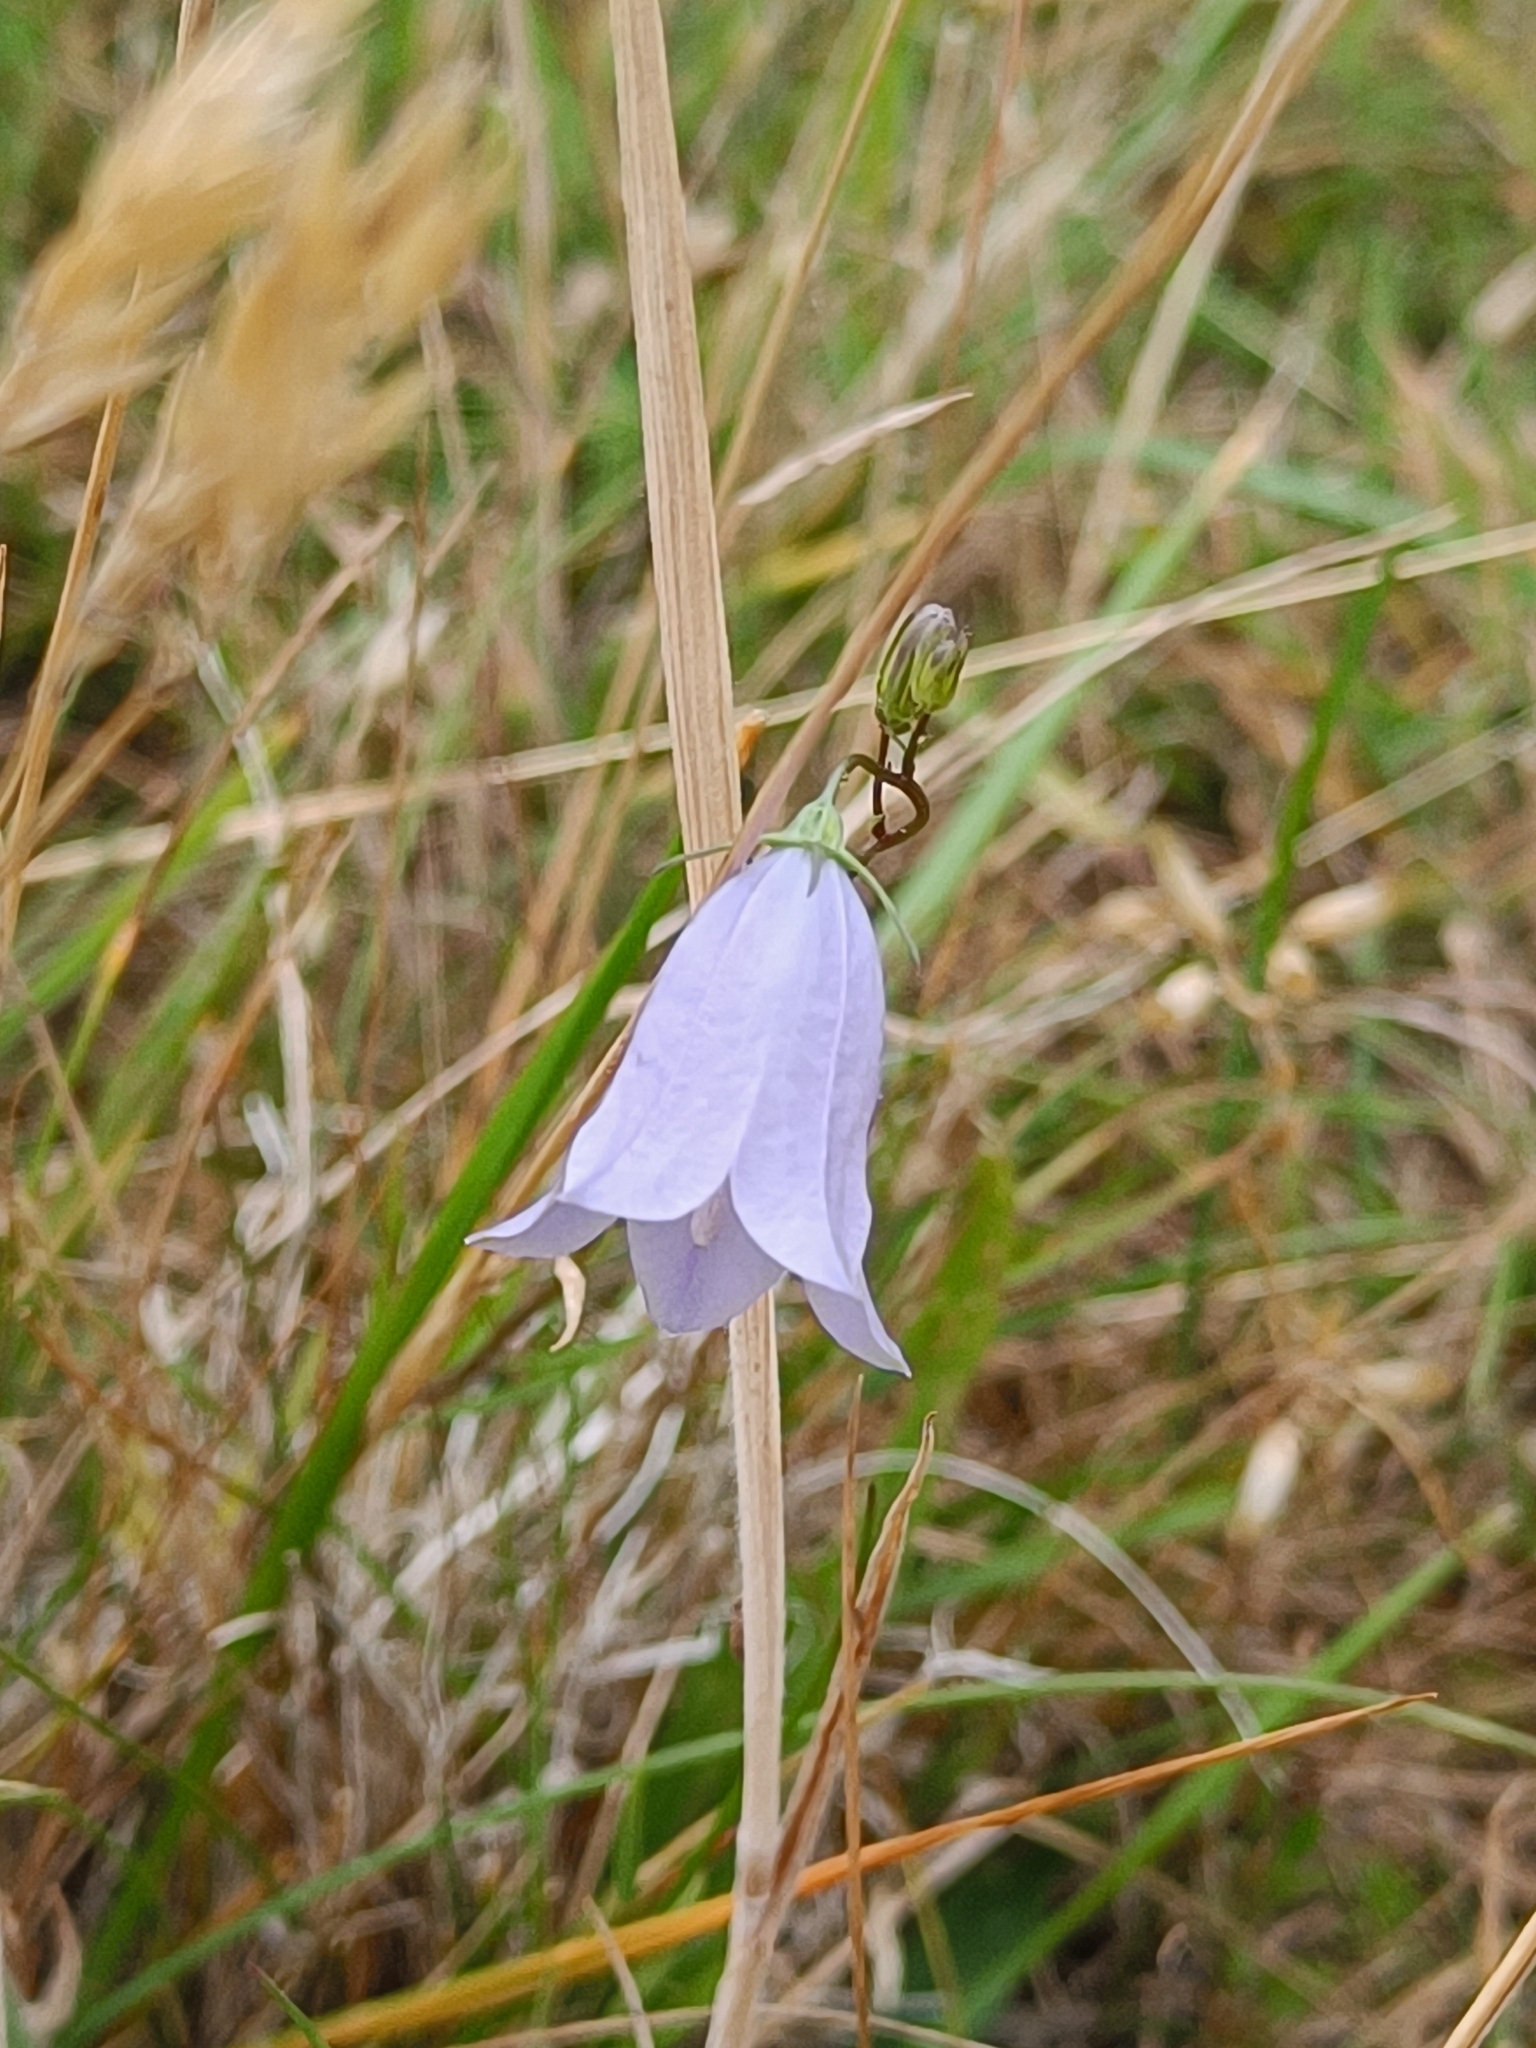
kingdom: Plantae
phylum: Tracheophyta
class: Magnoliopsida
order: Asterales
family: Campanulaceae
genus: Campanula
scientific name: Campanula rotundifolia
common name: Harebell
